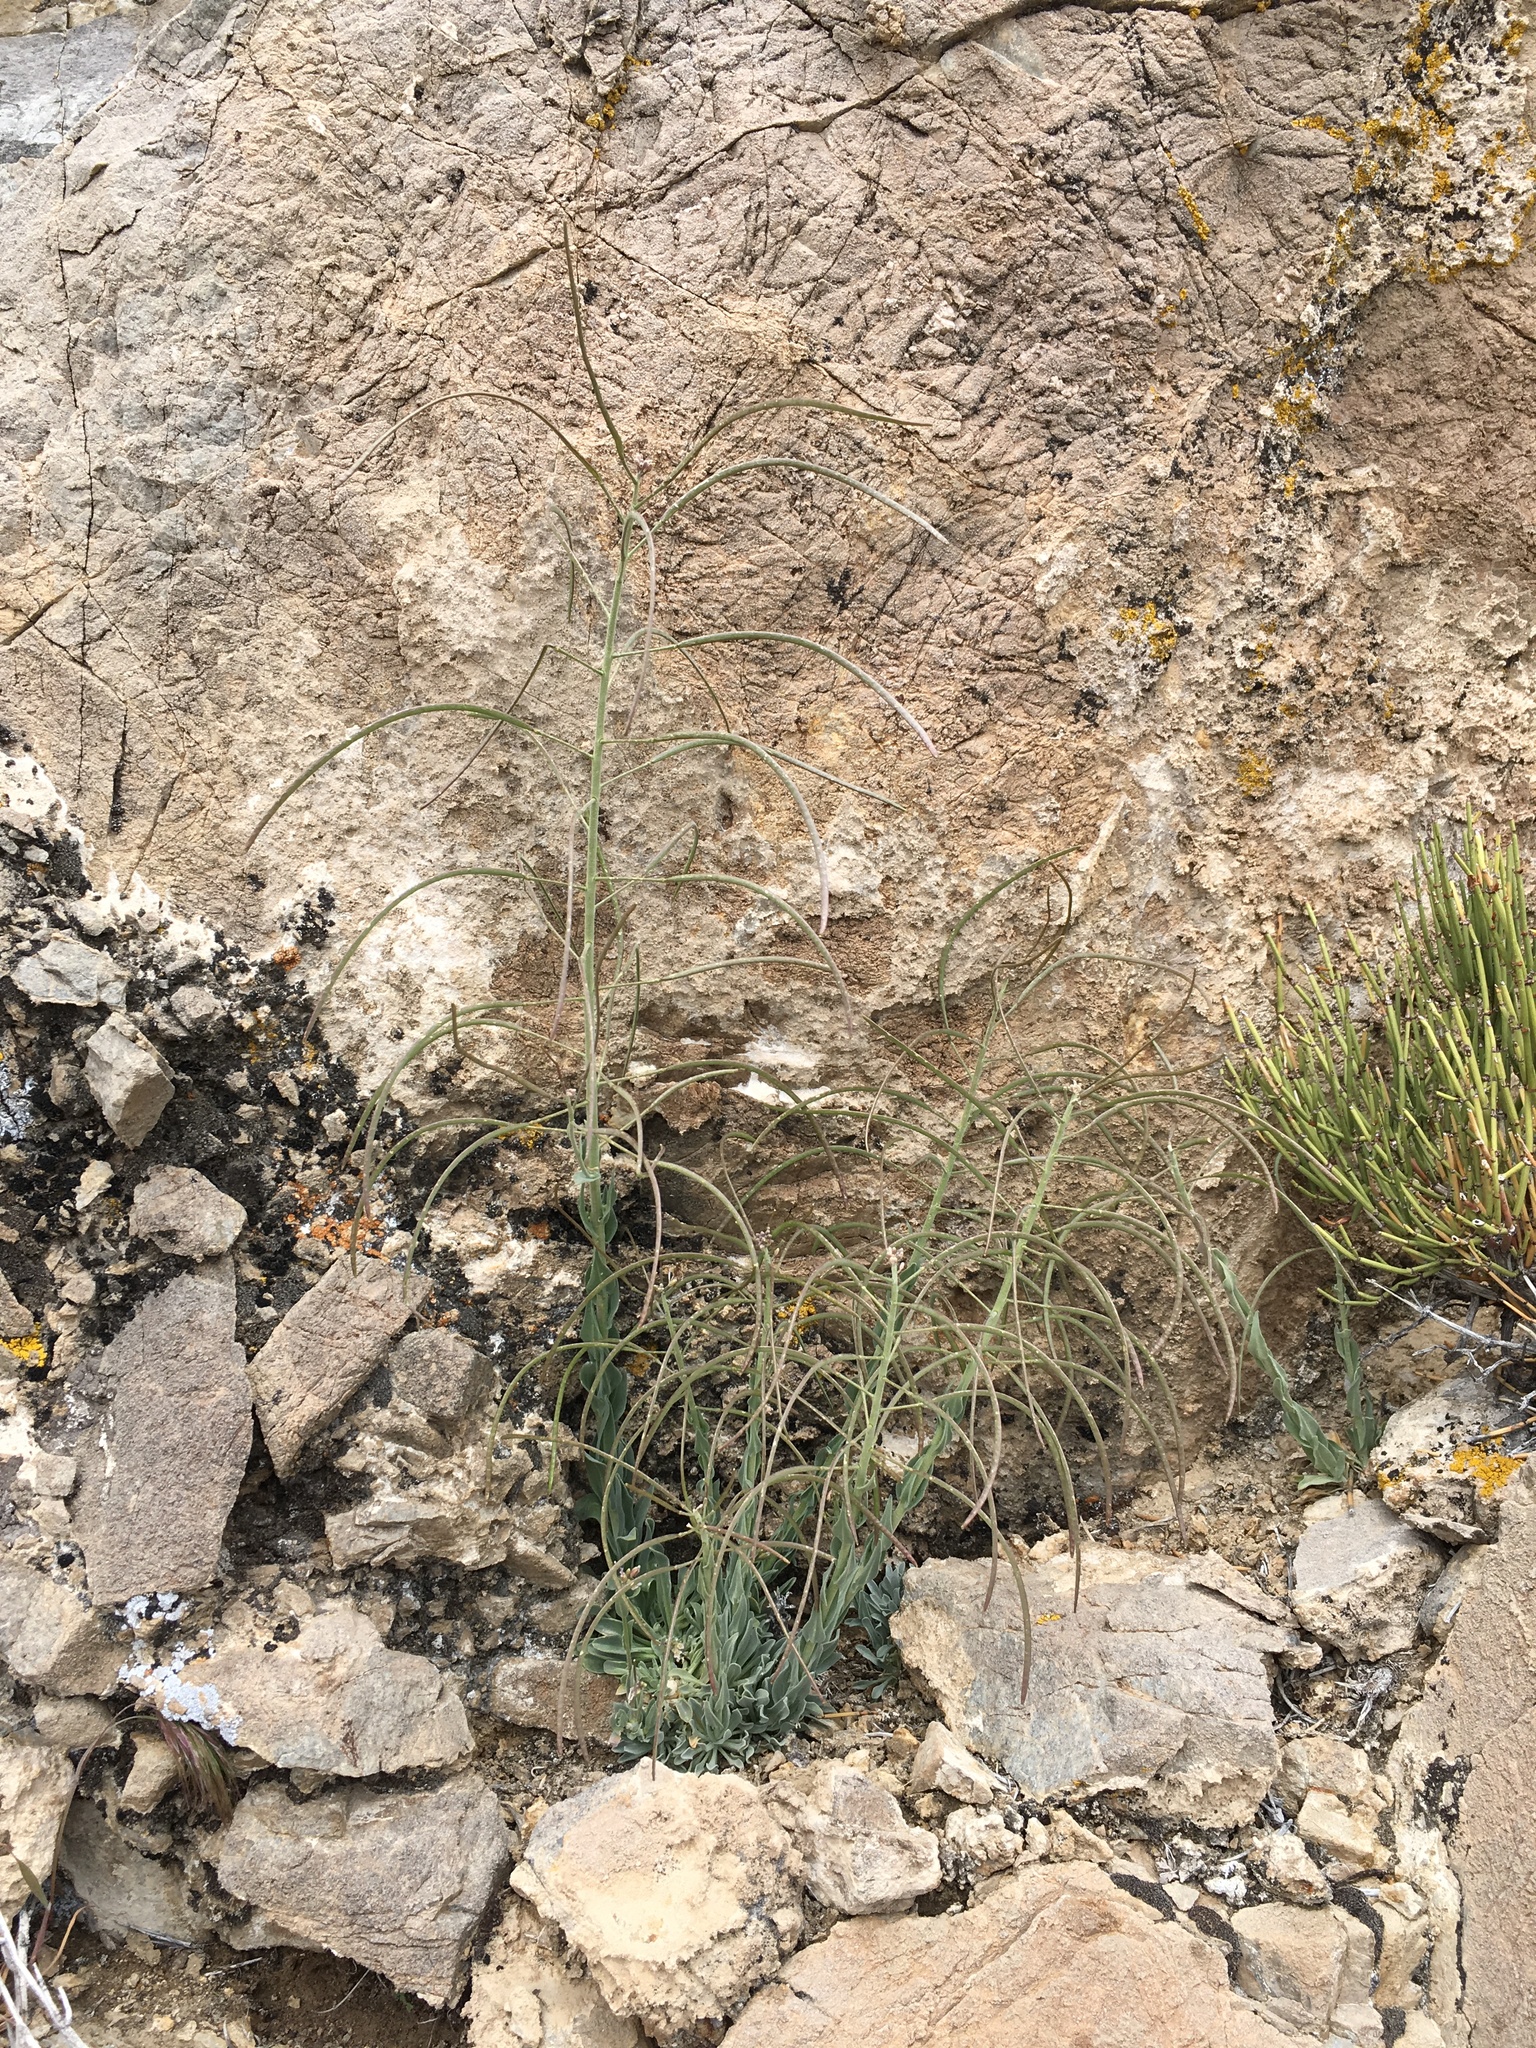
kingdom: Plantae
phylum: Tracheophyta
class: Magnoliopsida
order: Brassicales
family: Brassicaceae
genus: Boechera
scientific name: Boechera shockleyi
